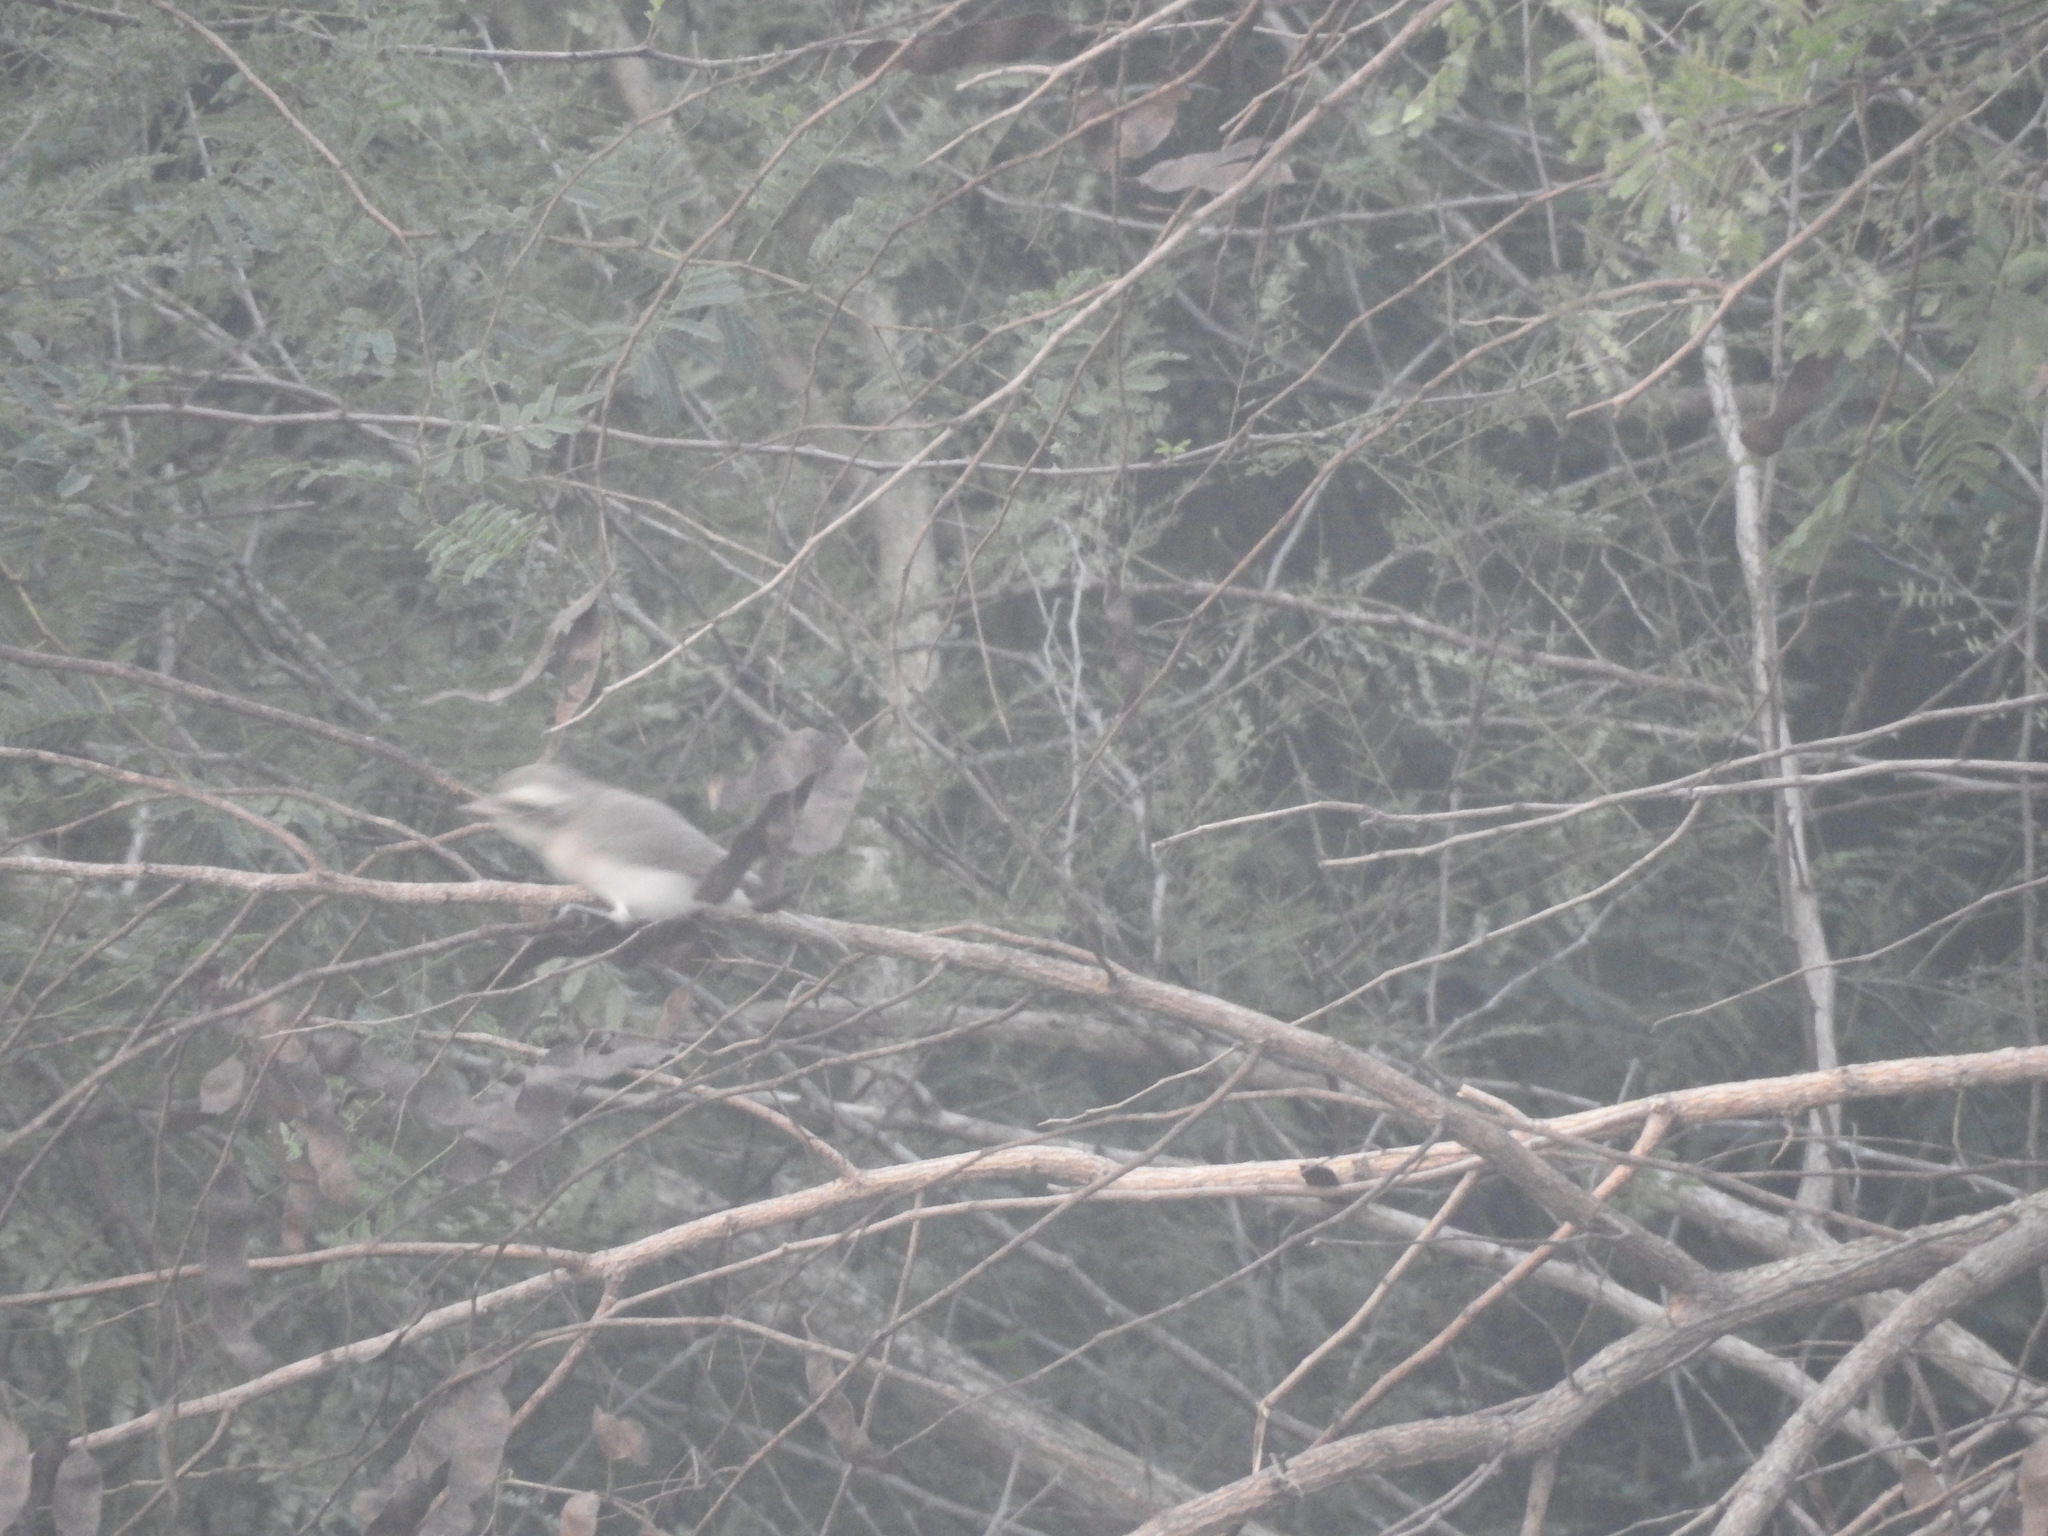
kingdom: Animalia
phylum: Chordata
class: Aves
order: Passeriformes
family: Tephrodornithidae
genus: Tephrodornis
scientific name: Tephrodornis pondicerianus
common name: Common woodshrike
